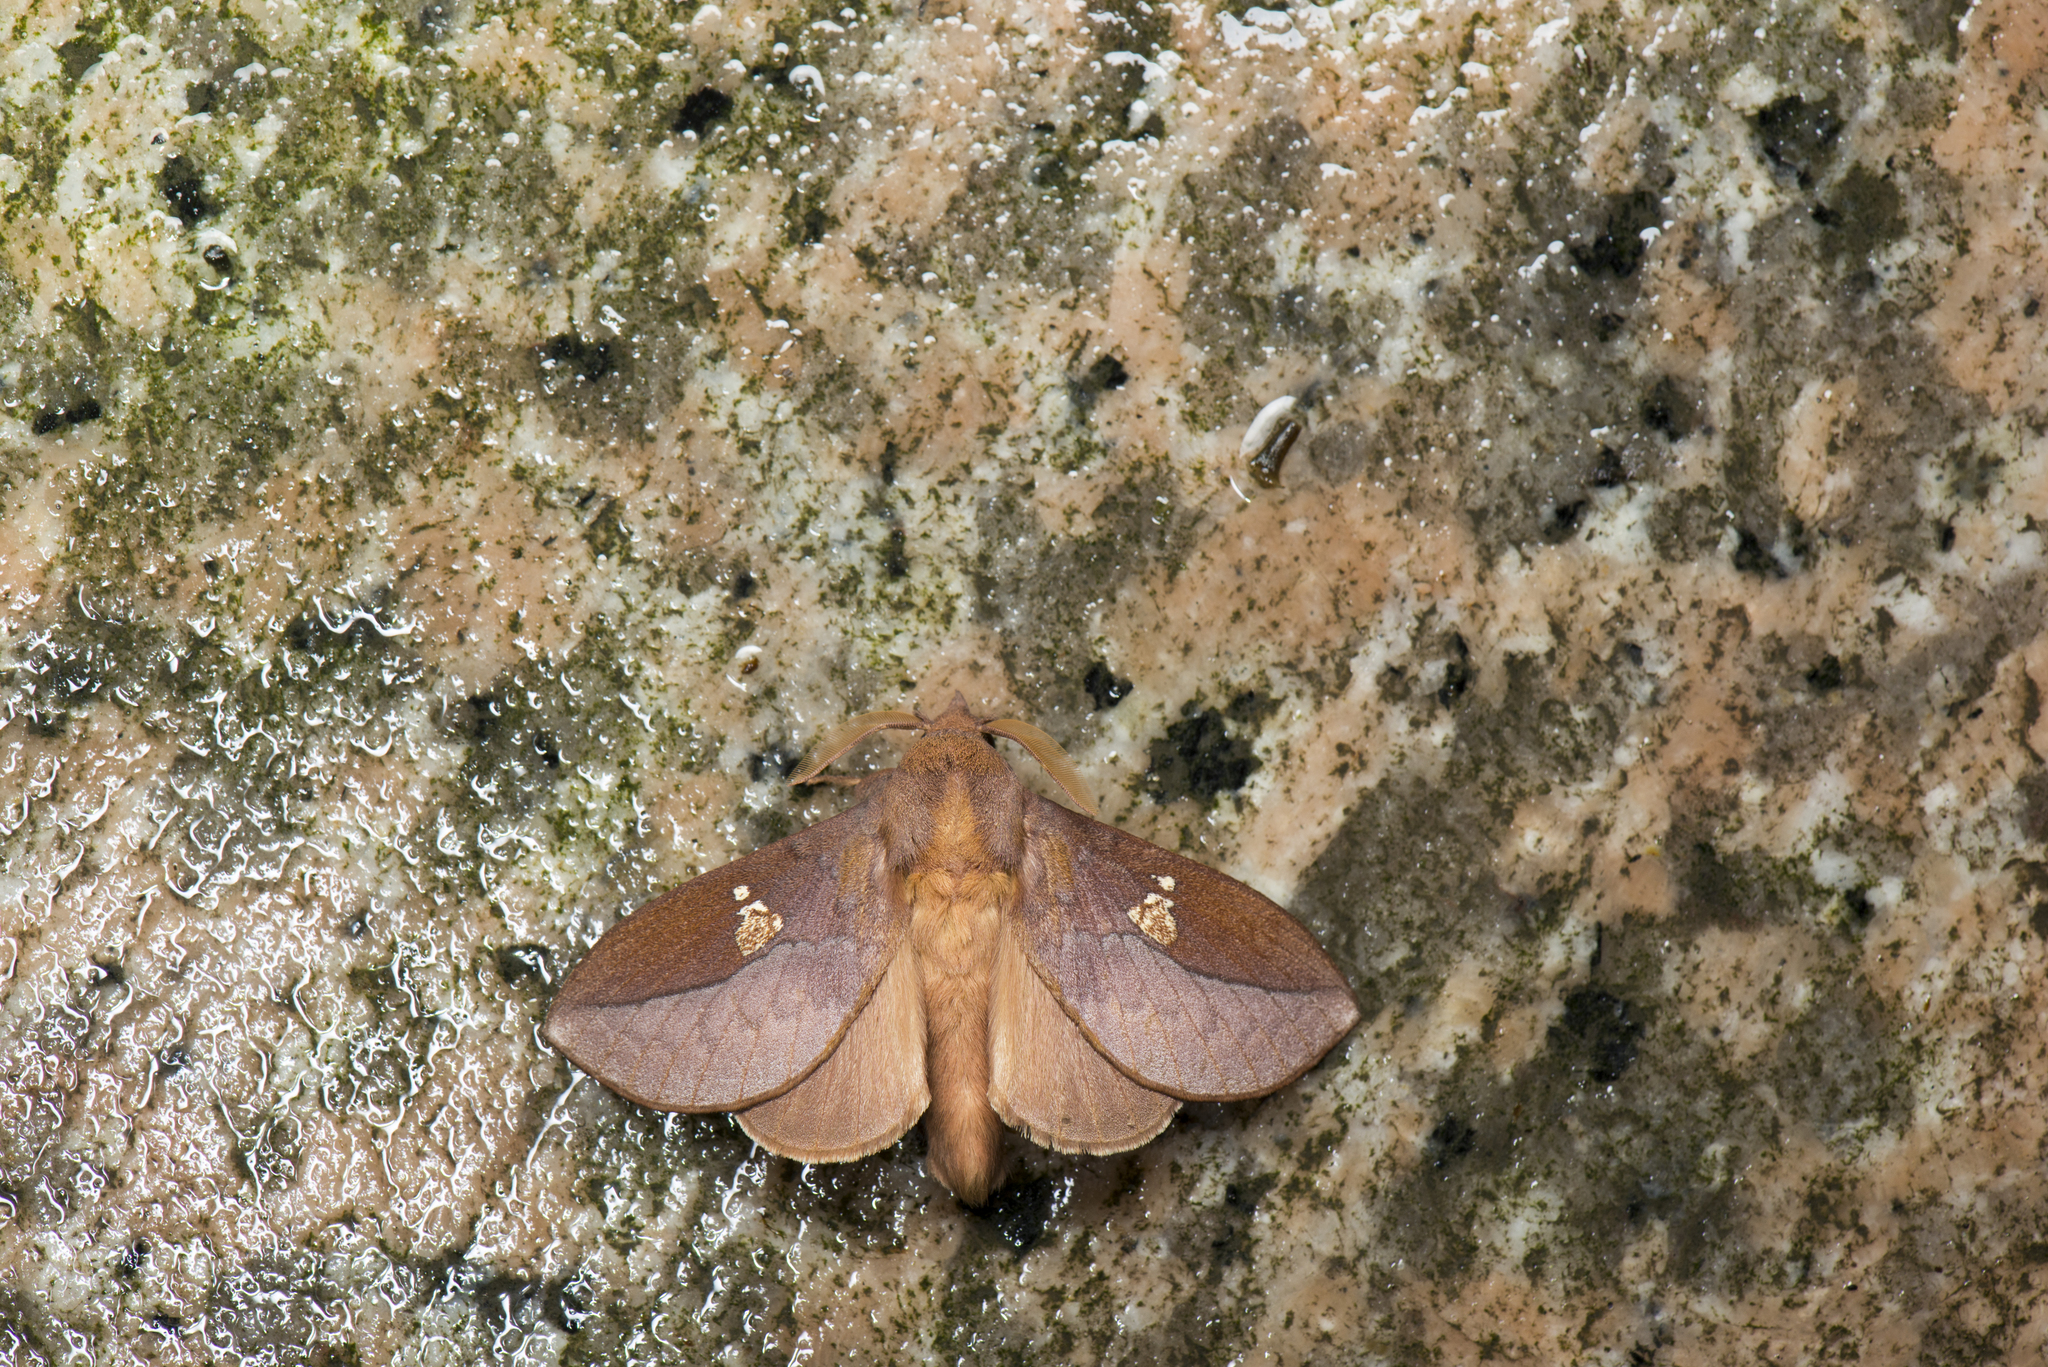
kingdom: Animalia
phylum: Arthropoda
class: Insecta
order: Lepidoptera
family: Lasiocampidae
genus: Euthrix
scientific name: Euthrix laeta
